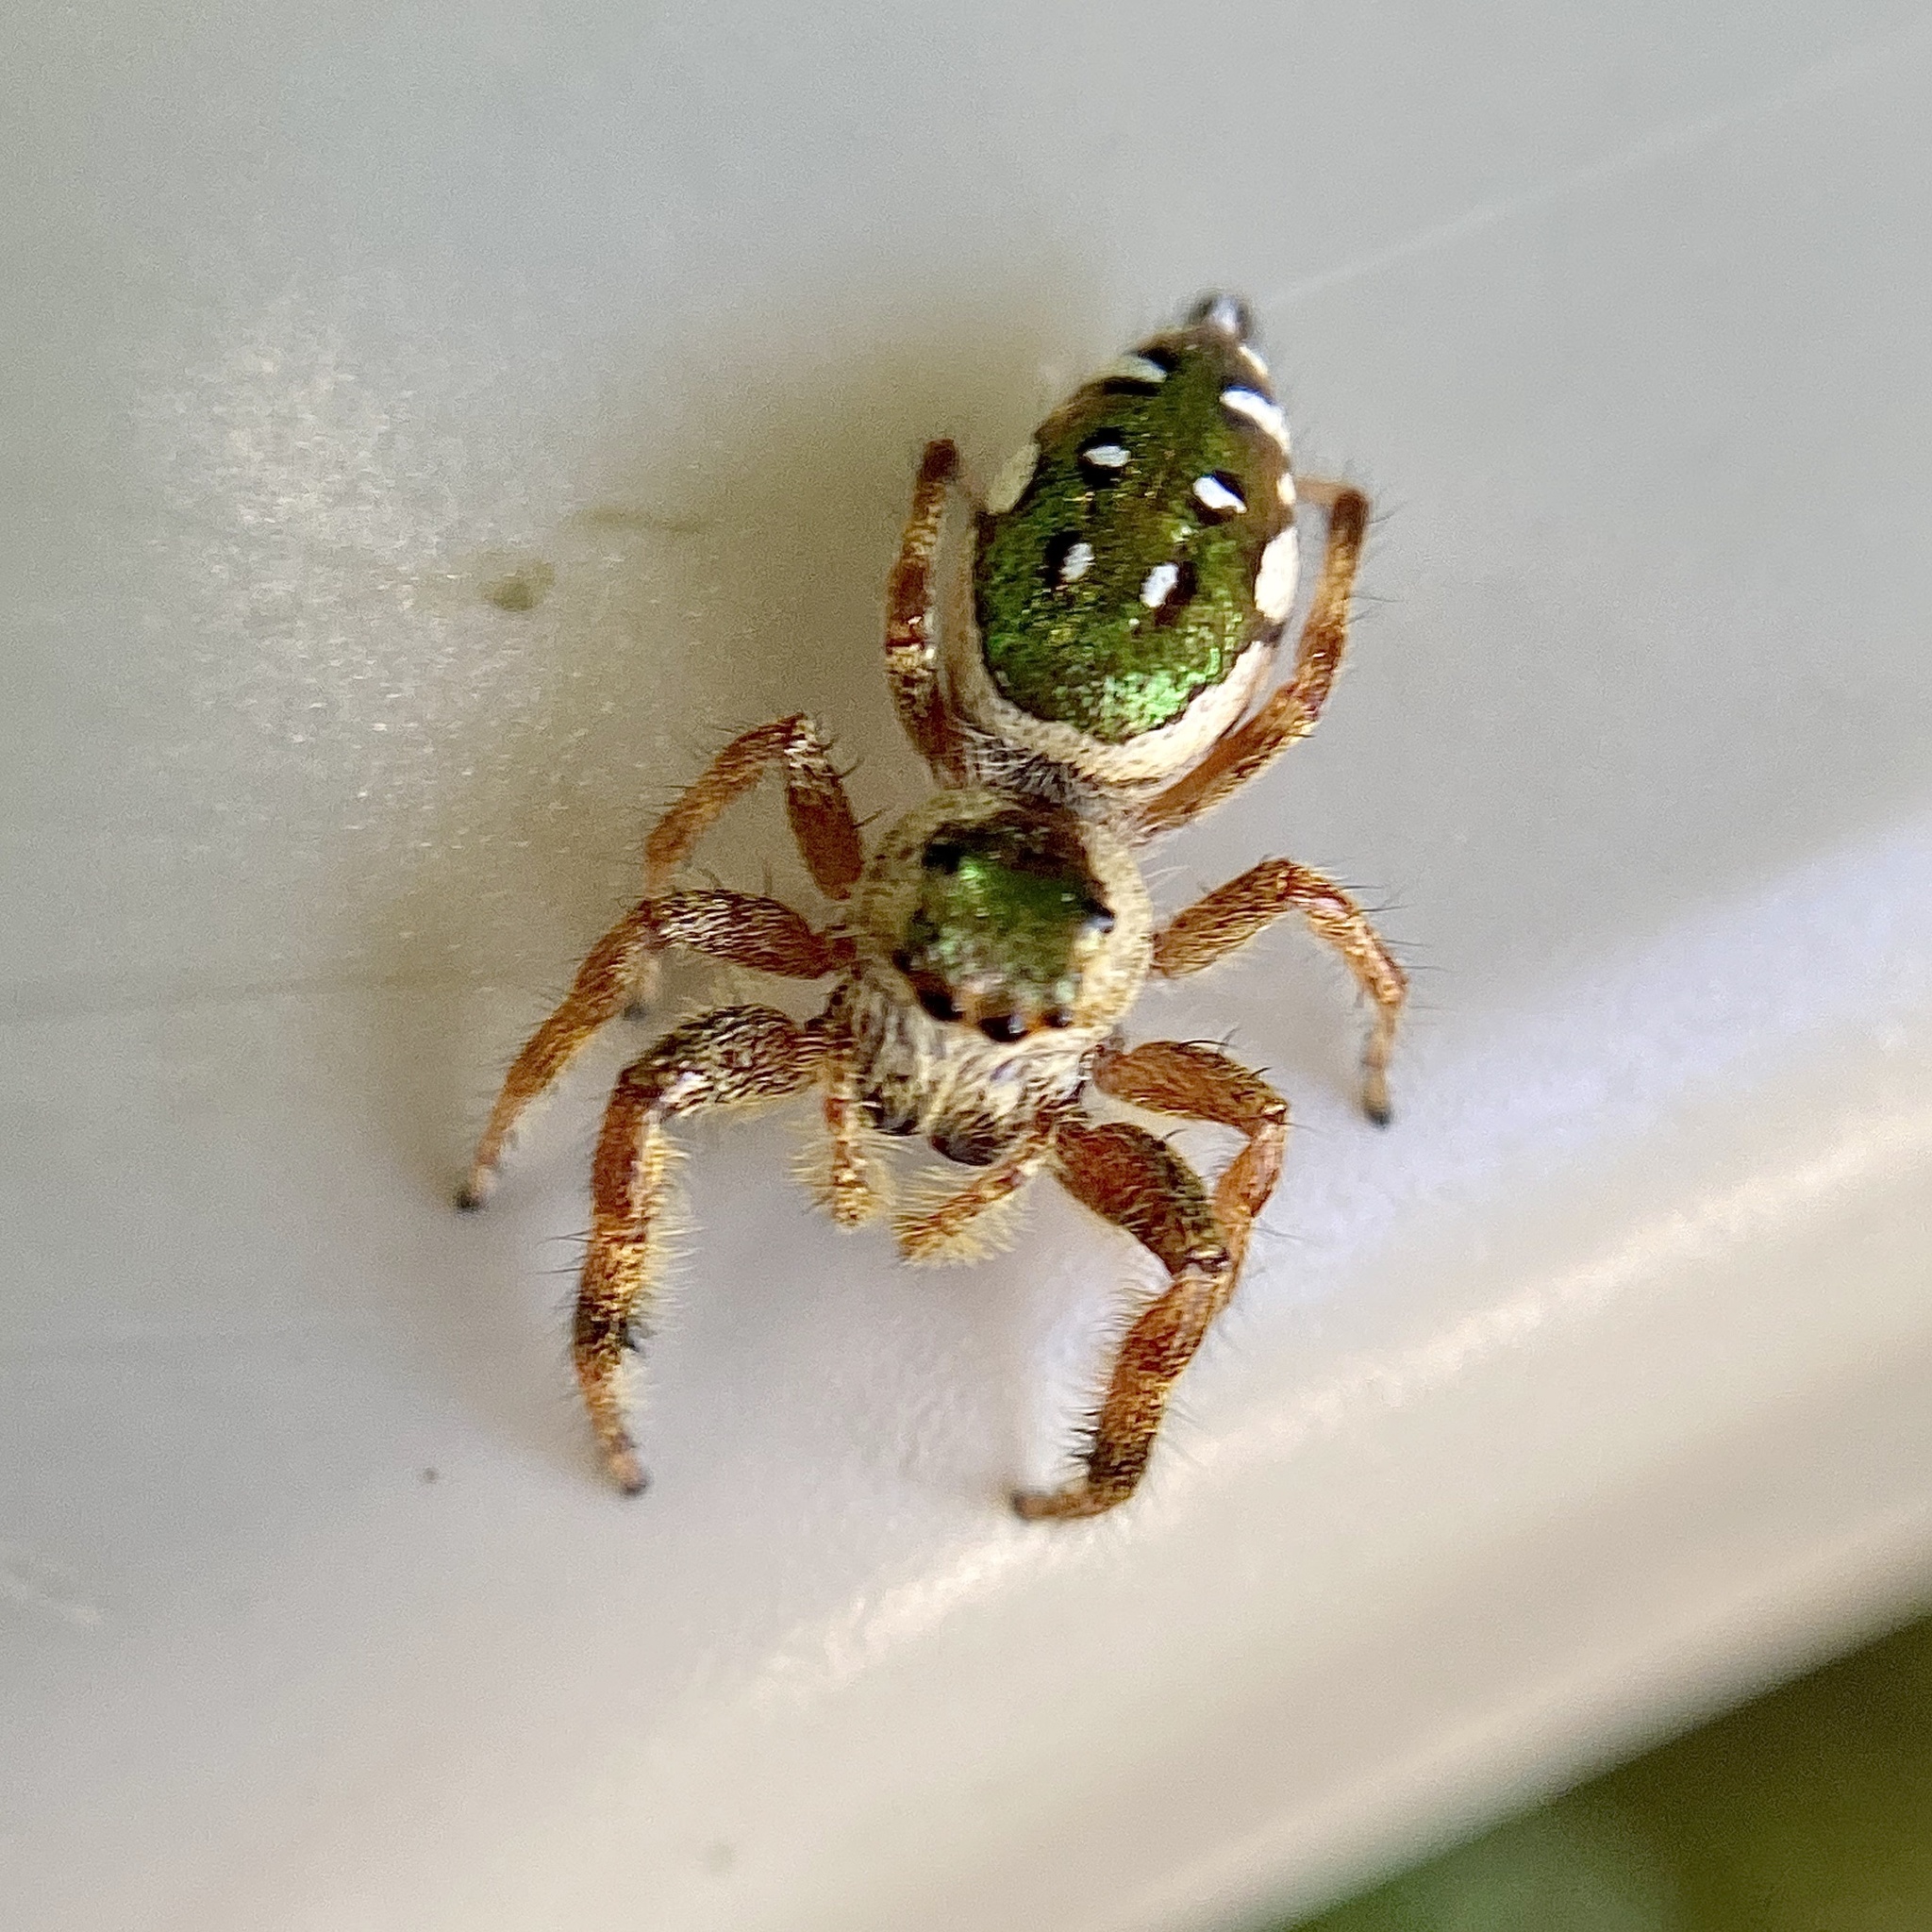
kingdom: Animalia
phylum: Arthropoda
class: Arachnida
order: Araneae
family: Salticidae
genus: Paraphidippus
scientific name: Paraphidippus aurantius
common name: Jumping spiders
